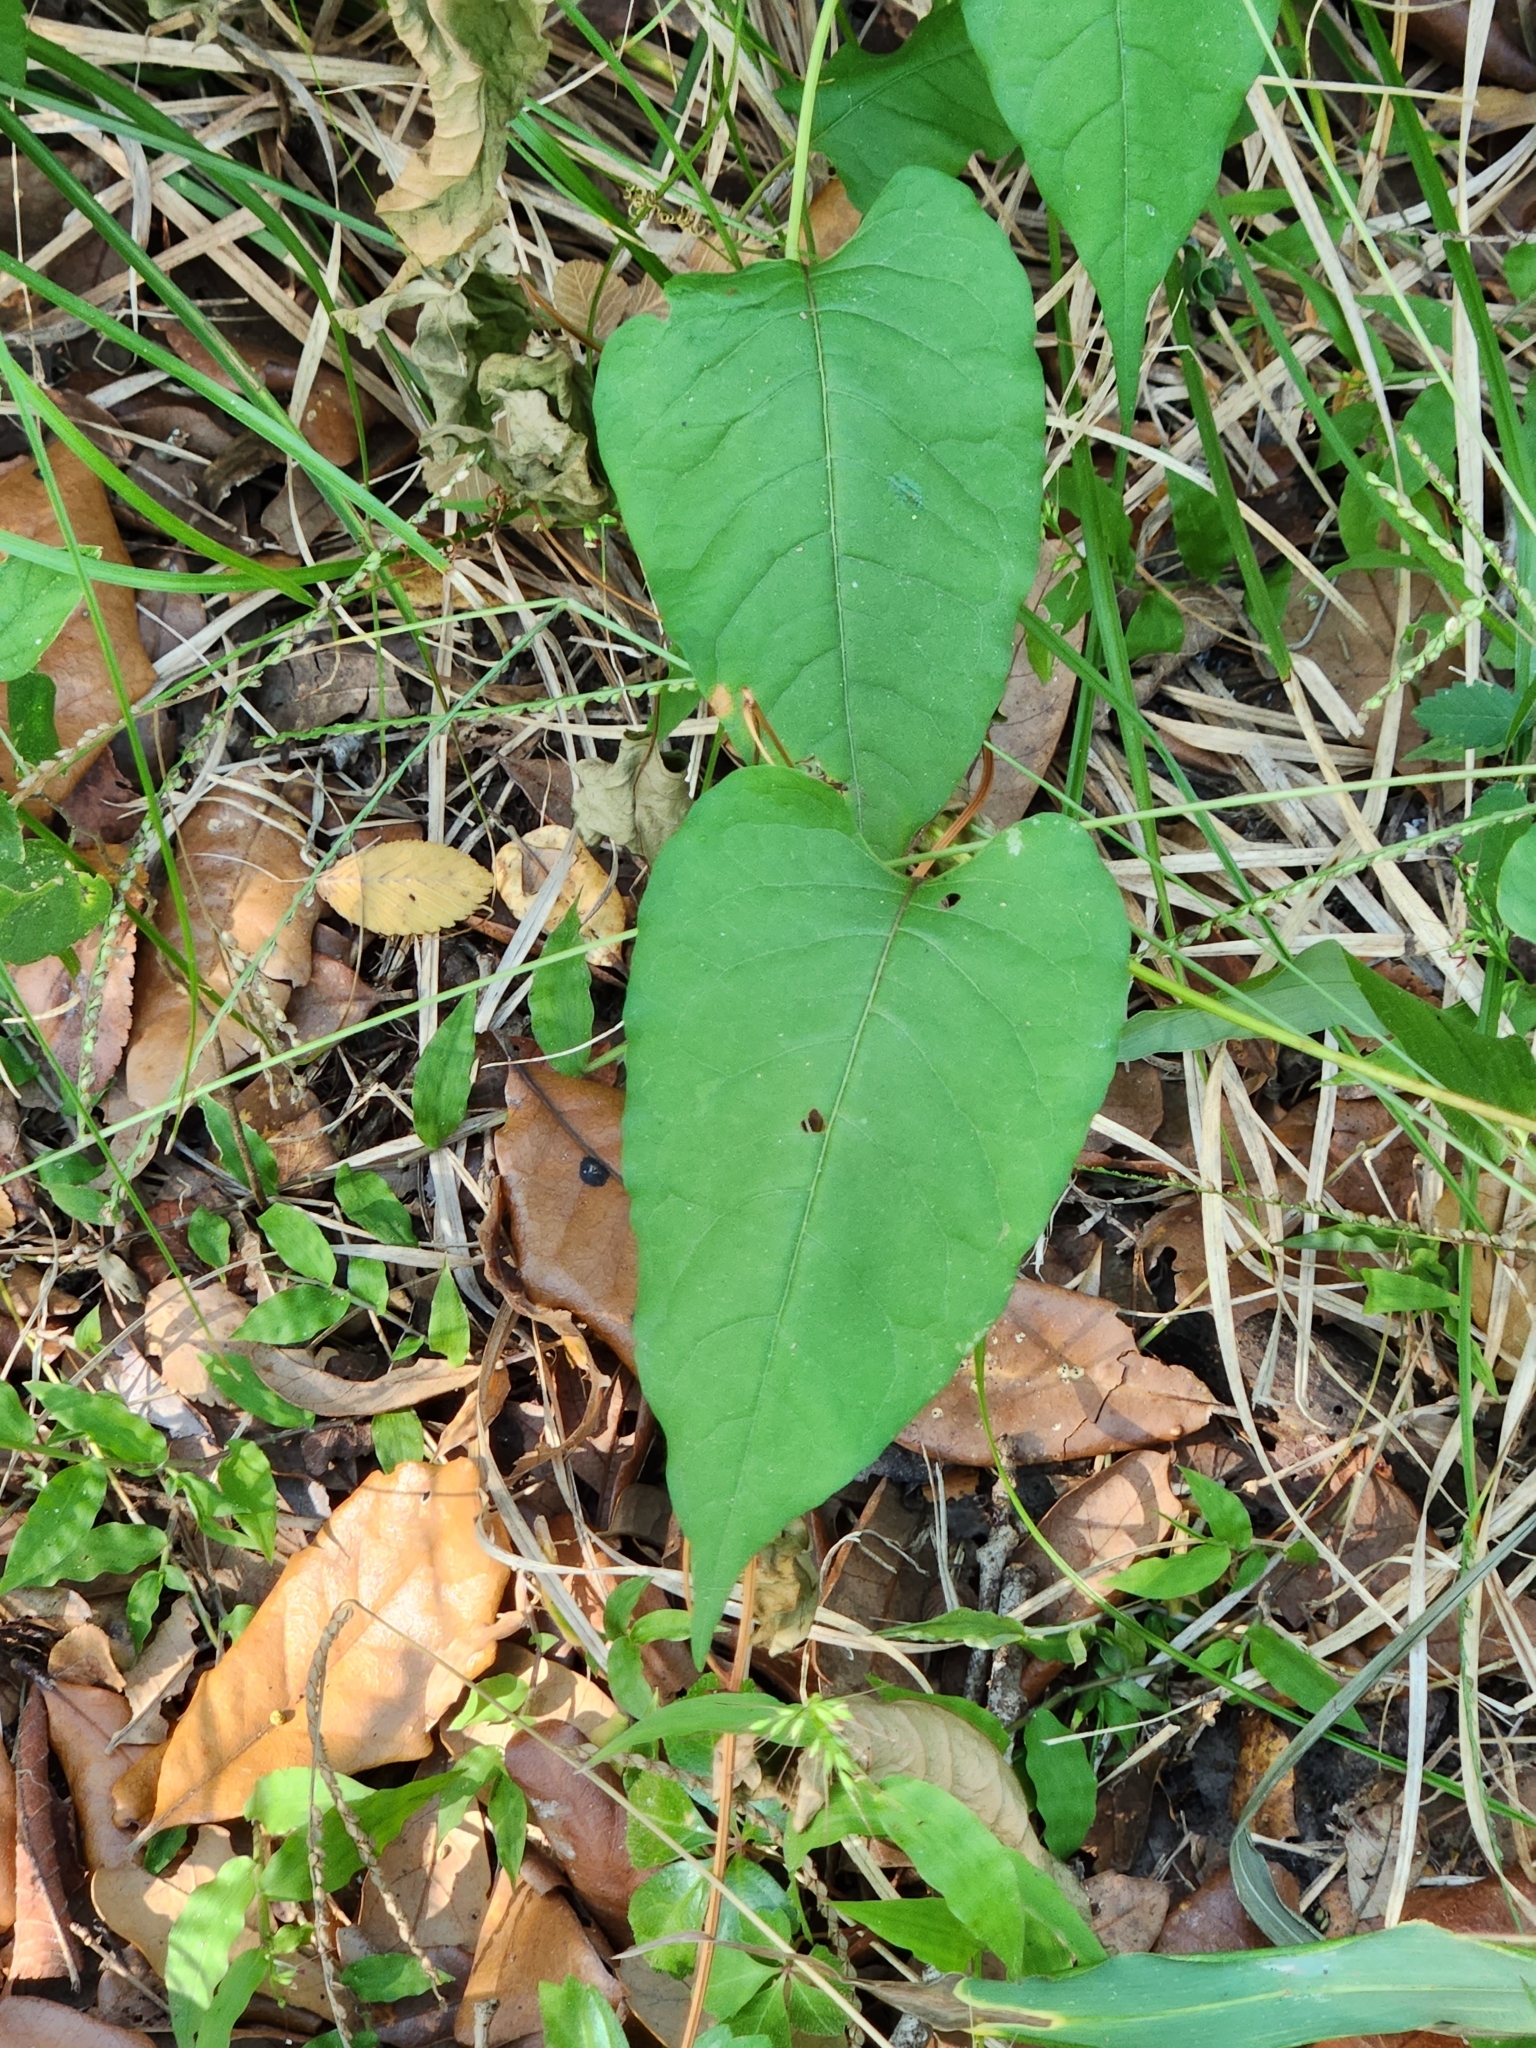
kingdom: Plantae
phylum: Tracheophyta
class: Magnoliopsida
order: Caryophyllales
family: Polygonaceae
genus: Brunnichia
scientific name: Brunnichia ovata
